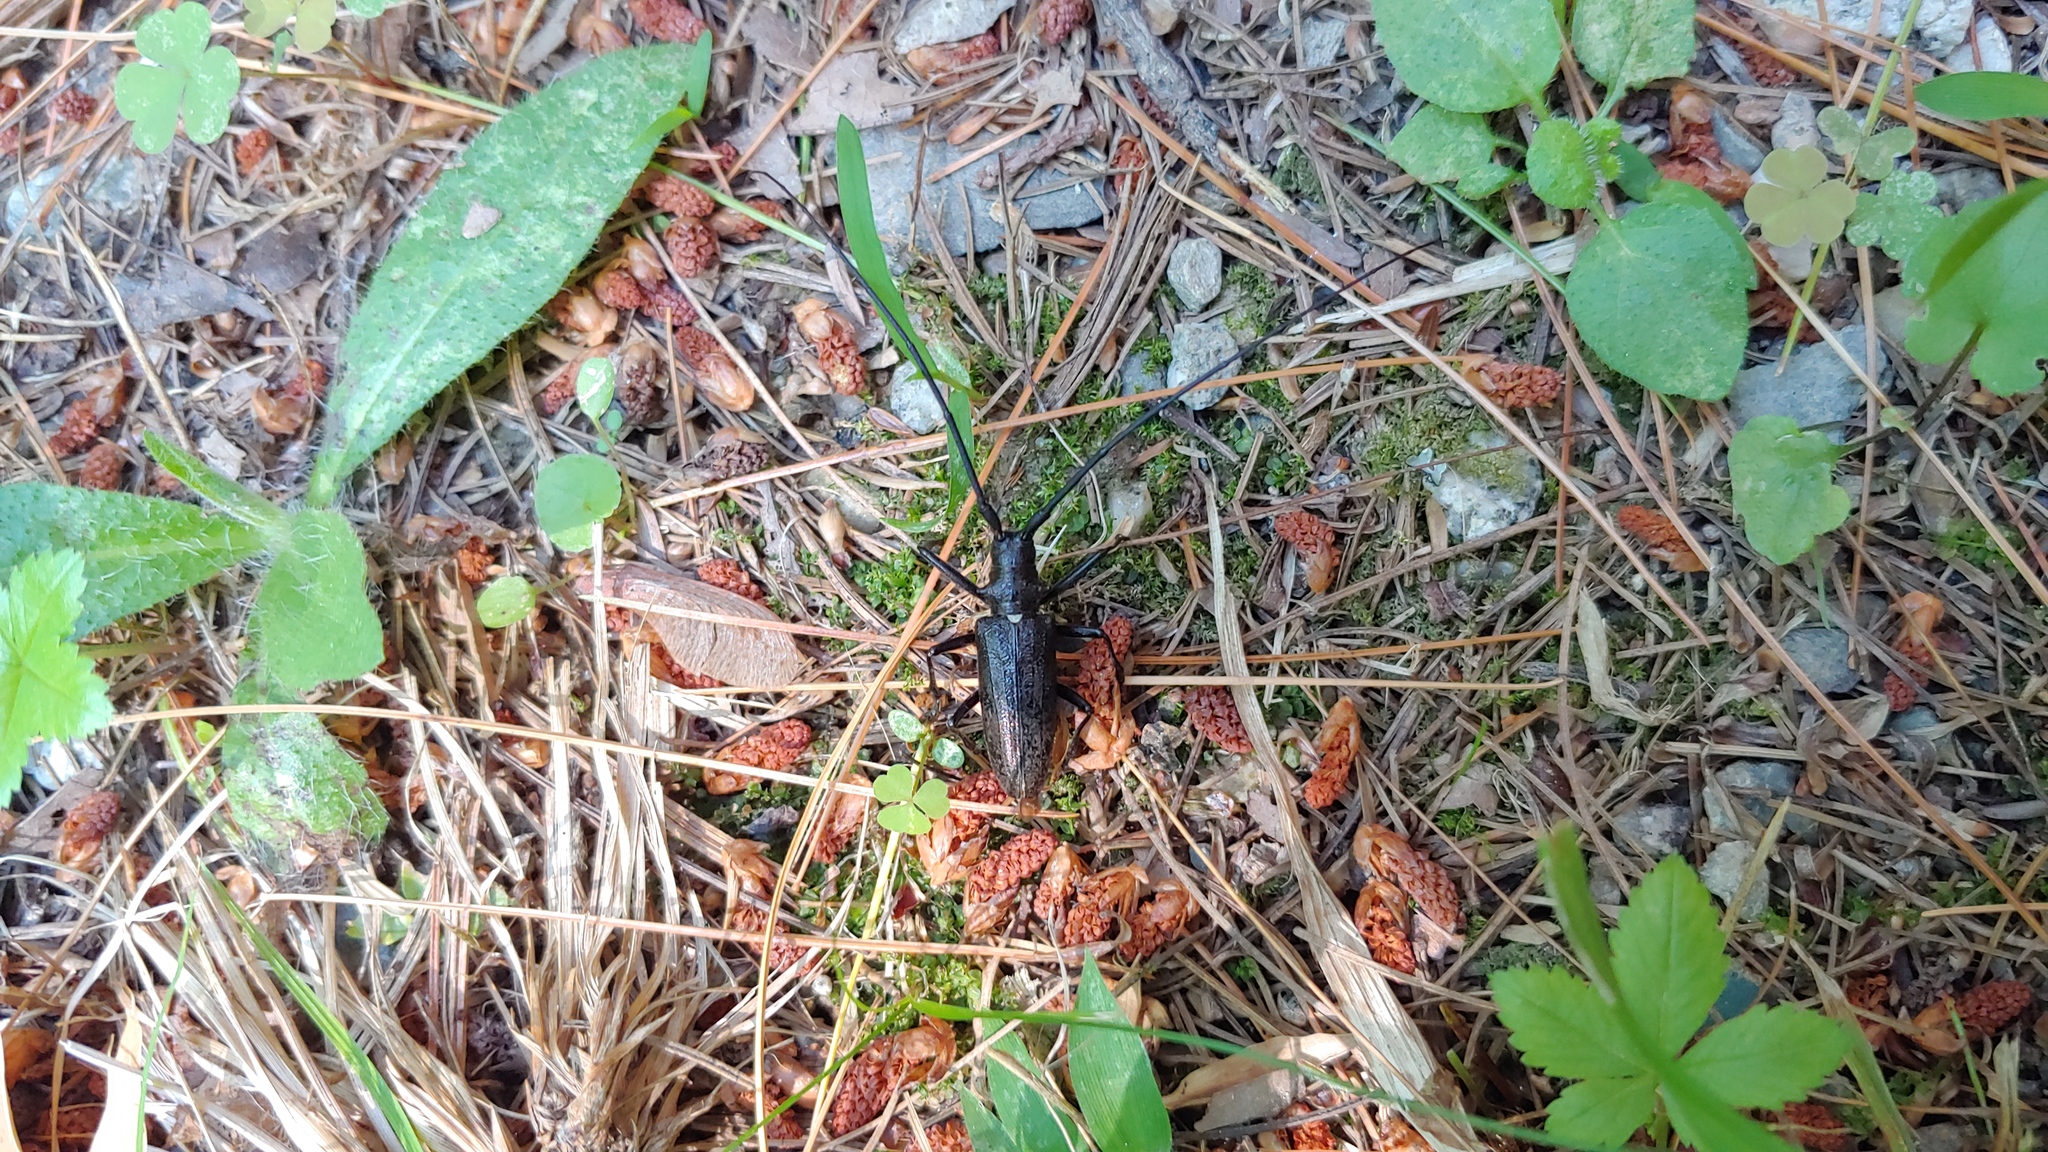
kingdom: Animalia
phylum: Arthropoda
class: Insecta
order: Coleoptera
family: Cerambycidae
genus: Monochamus
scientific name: Monochamus scutellatus
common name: White-spotted sawyer beetle
